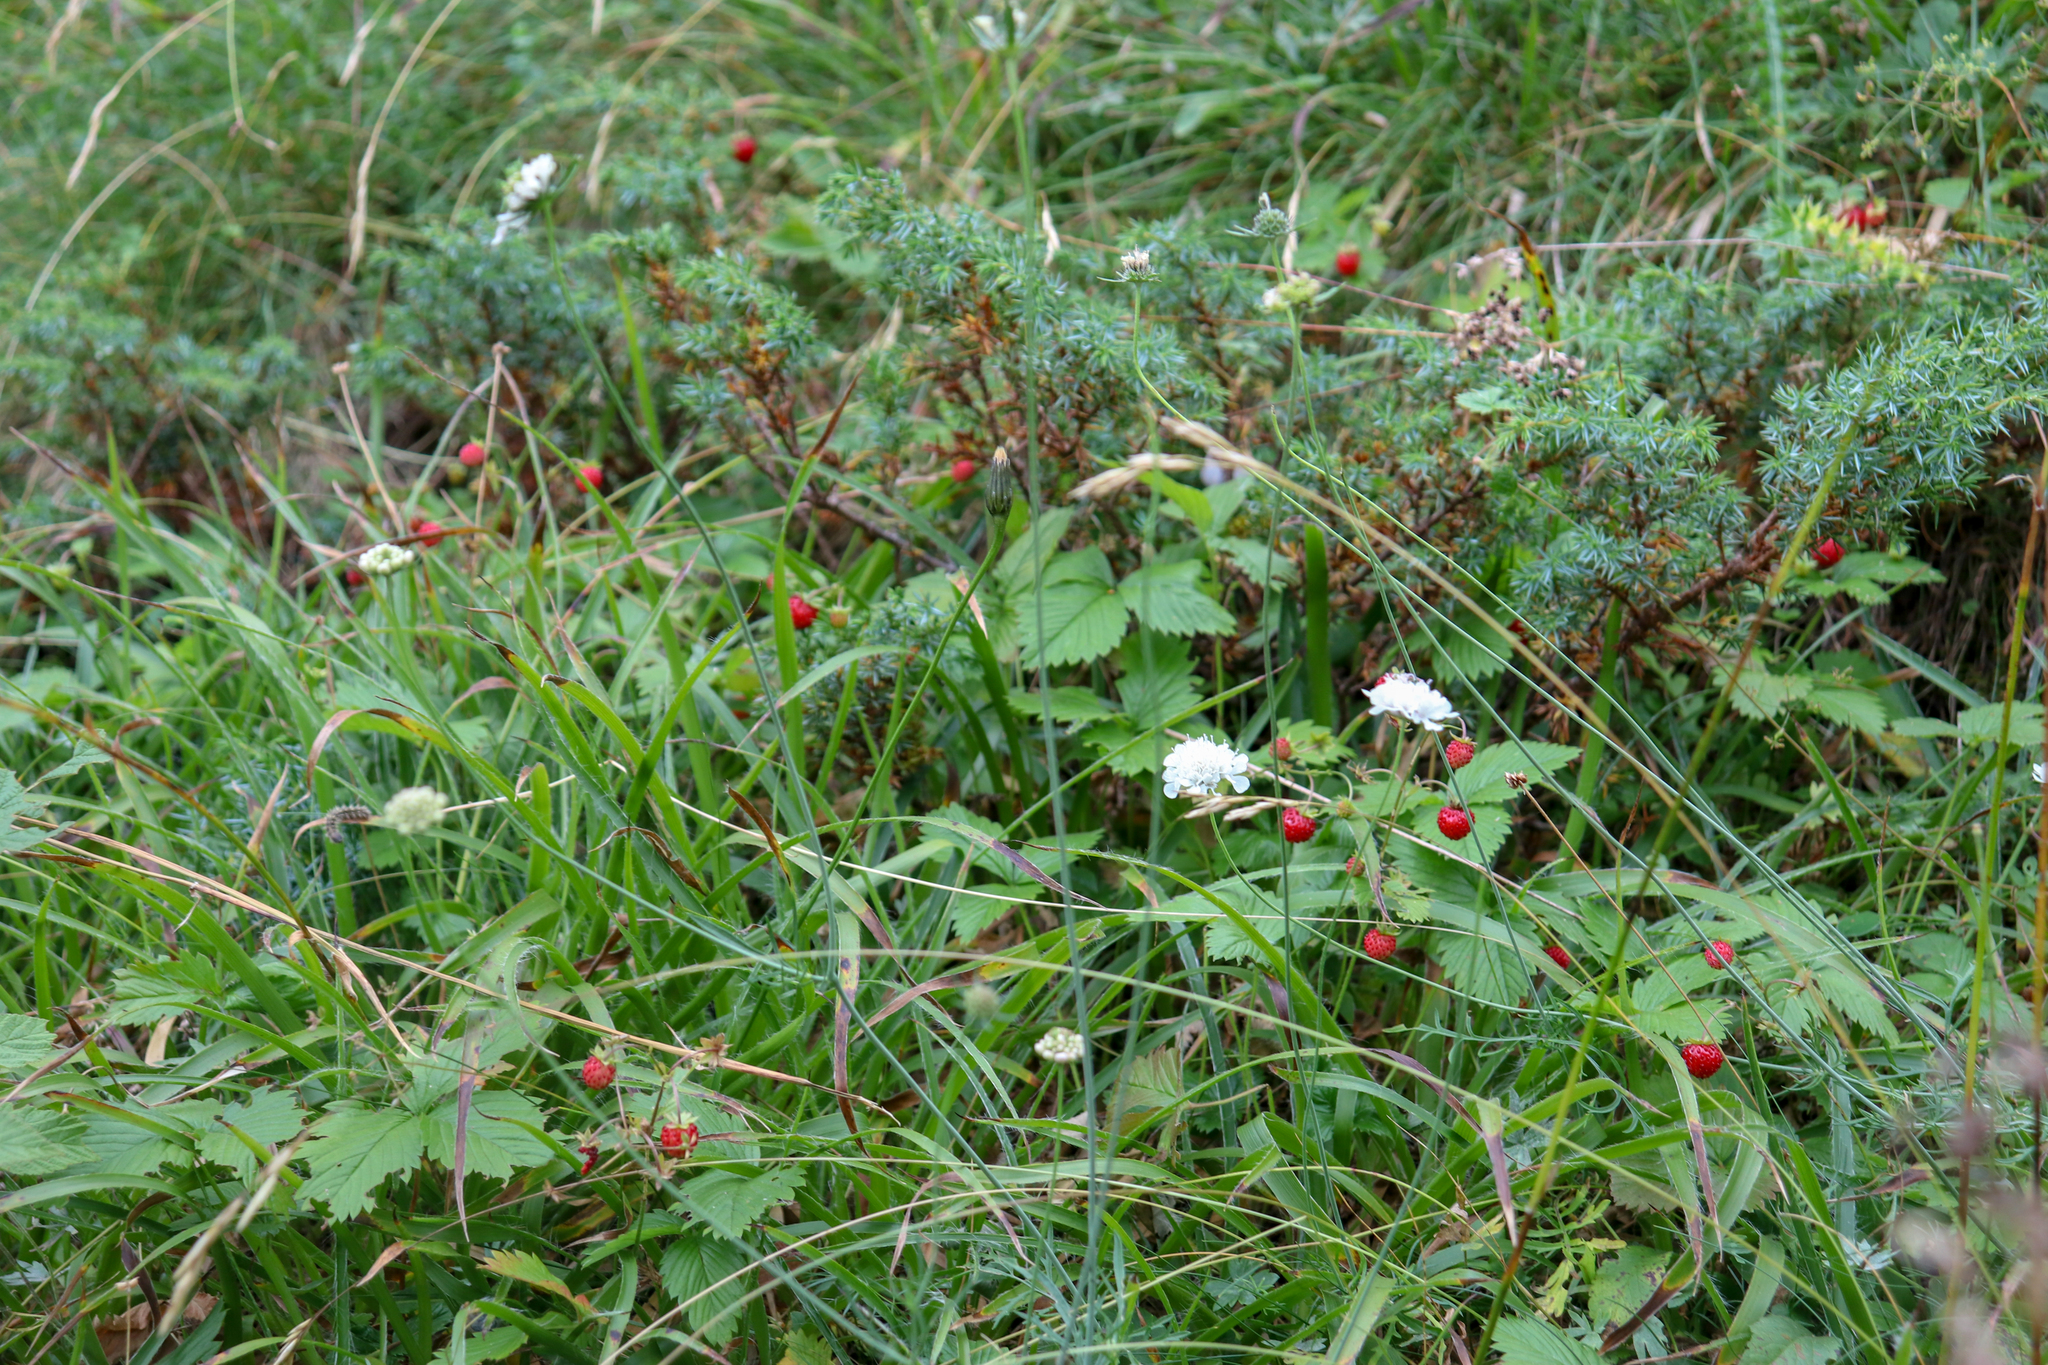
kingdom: Plantae
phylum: Tracheophyta
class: Magnoliopsida
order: Rosales
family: Rosaceae
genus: Fragaria
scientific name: Fragaria vesca
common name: Wild strawberry
